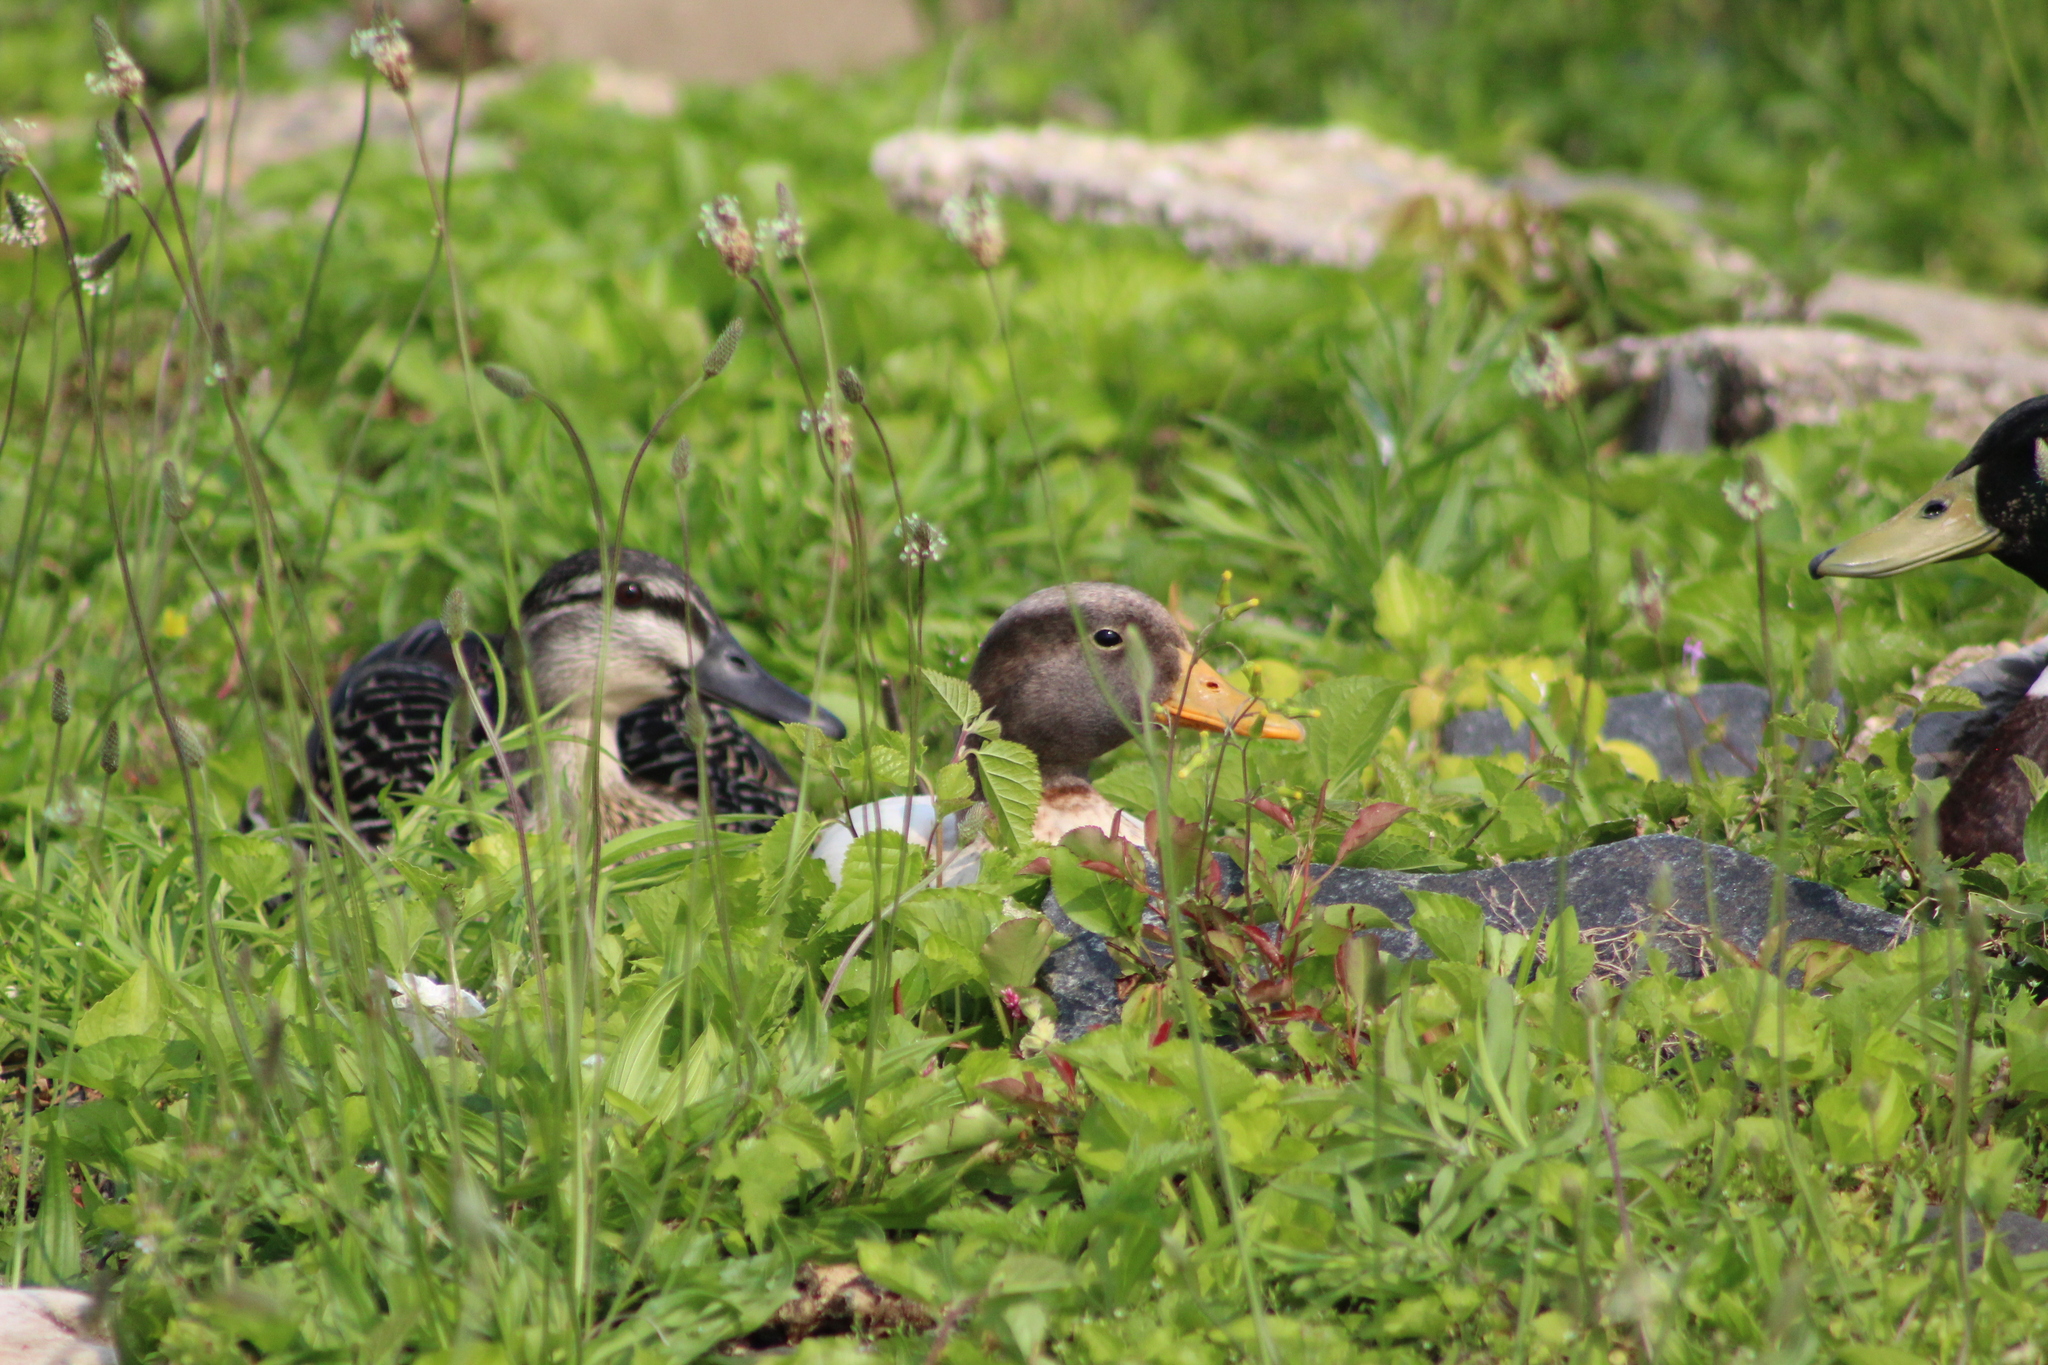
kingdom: Animalia
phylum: Chordata
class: Aves
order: Anseriformes
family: Anatidae
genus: Anas
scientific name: Anas platyrhynchos
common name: Mallard
